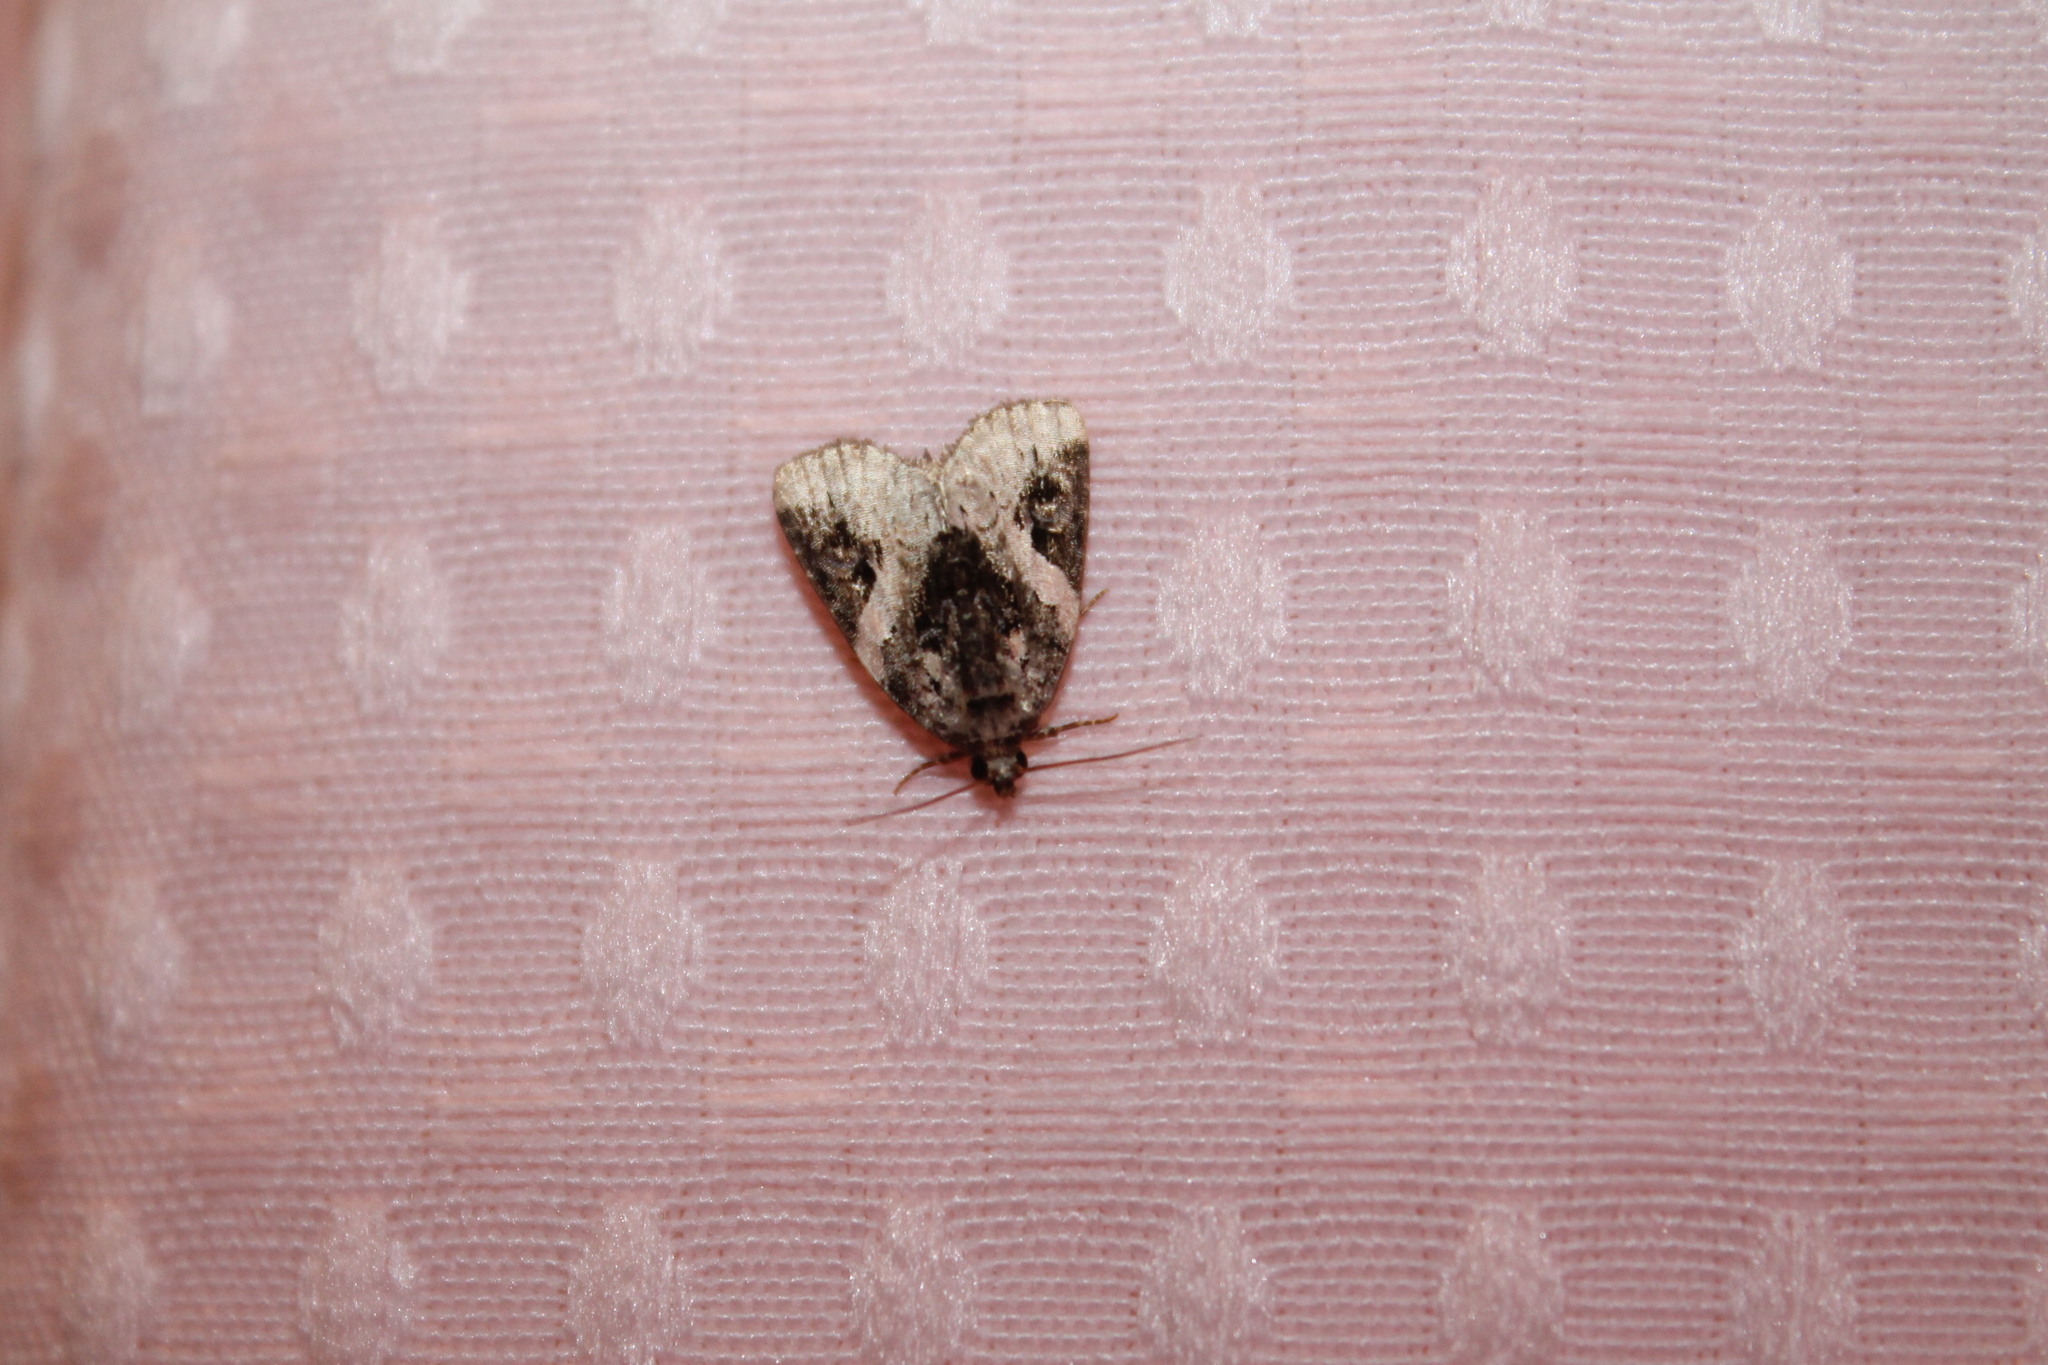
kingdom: Animalia
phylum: Arthropoda
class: Insecta
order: Lepidoptera
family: Noctuidae
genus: Pseudeustrotia
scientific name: Pseudeustrotia carneola
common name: Pink-barred lithacodia moth
